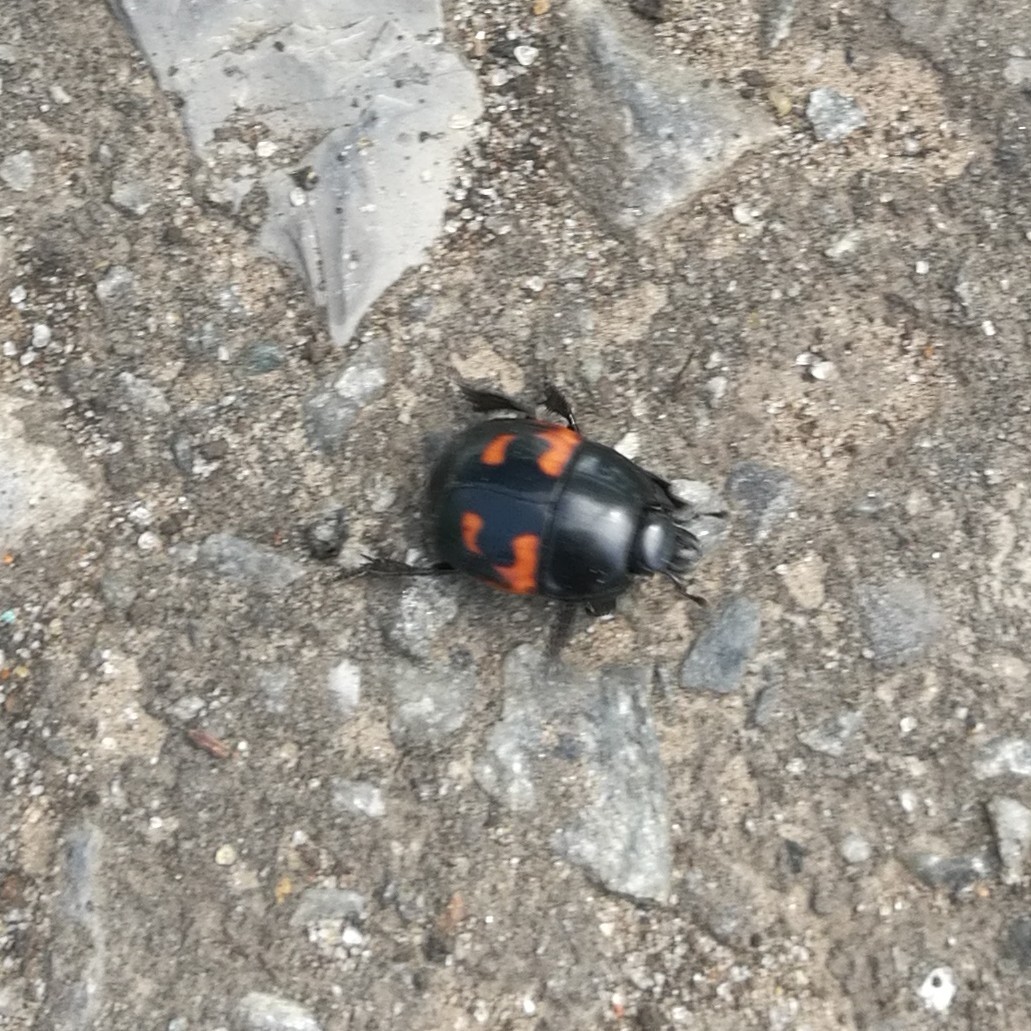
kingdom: Animalia
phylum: Arthropoda
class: Insecta
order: Coleoptera
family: Histeridae
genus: Hister
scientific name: Hister quadrimaculatus
